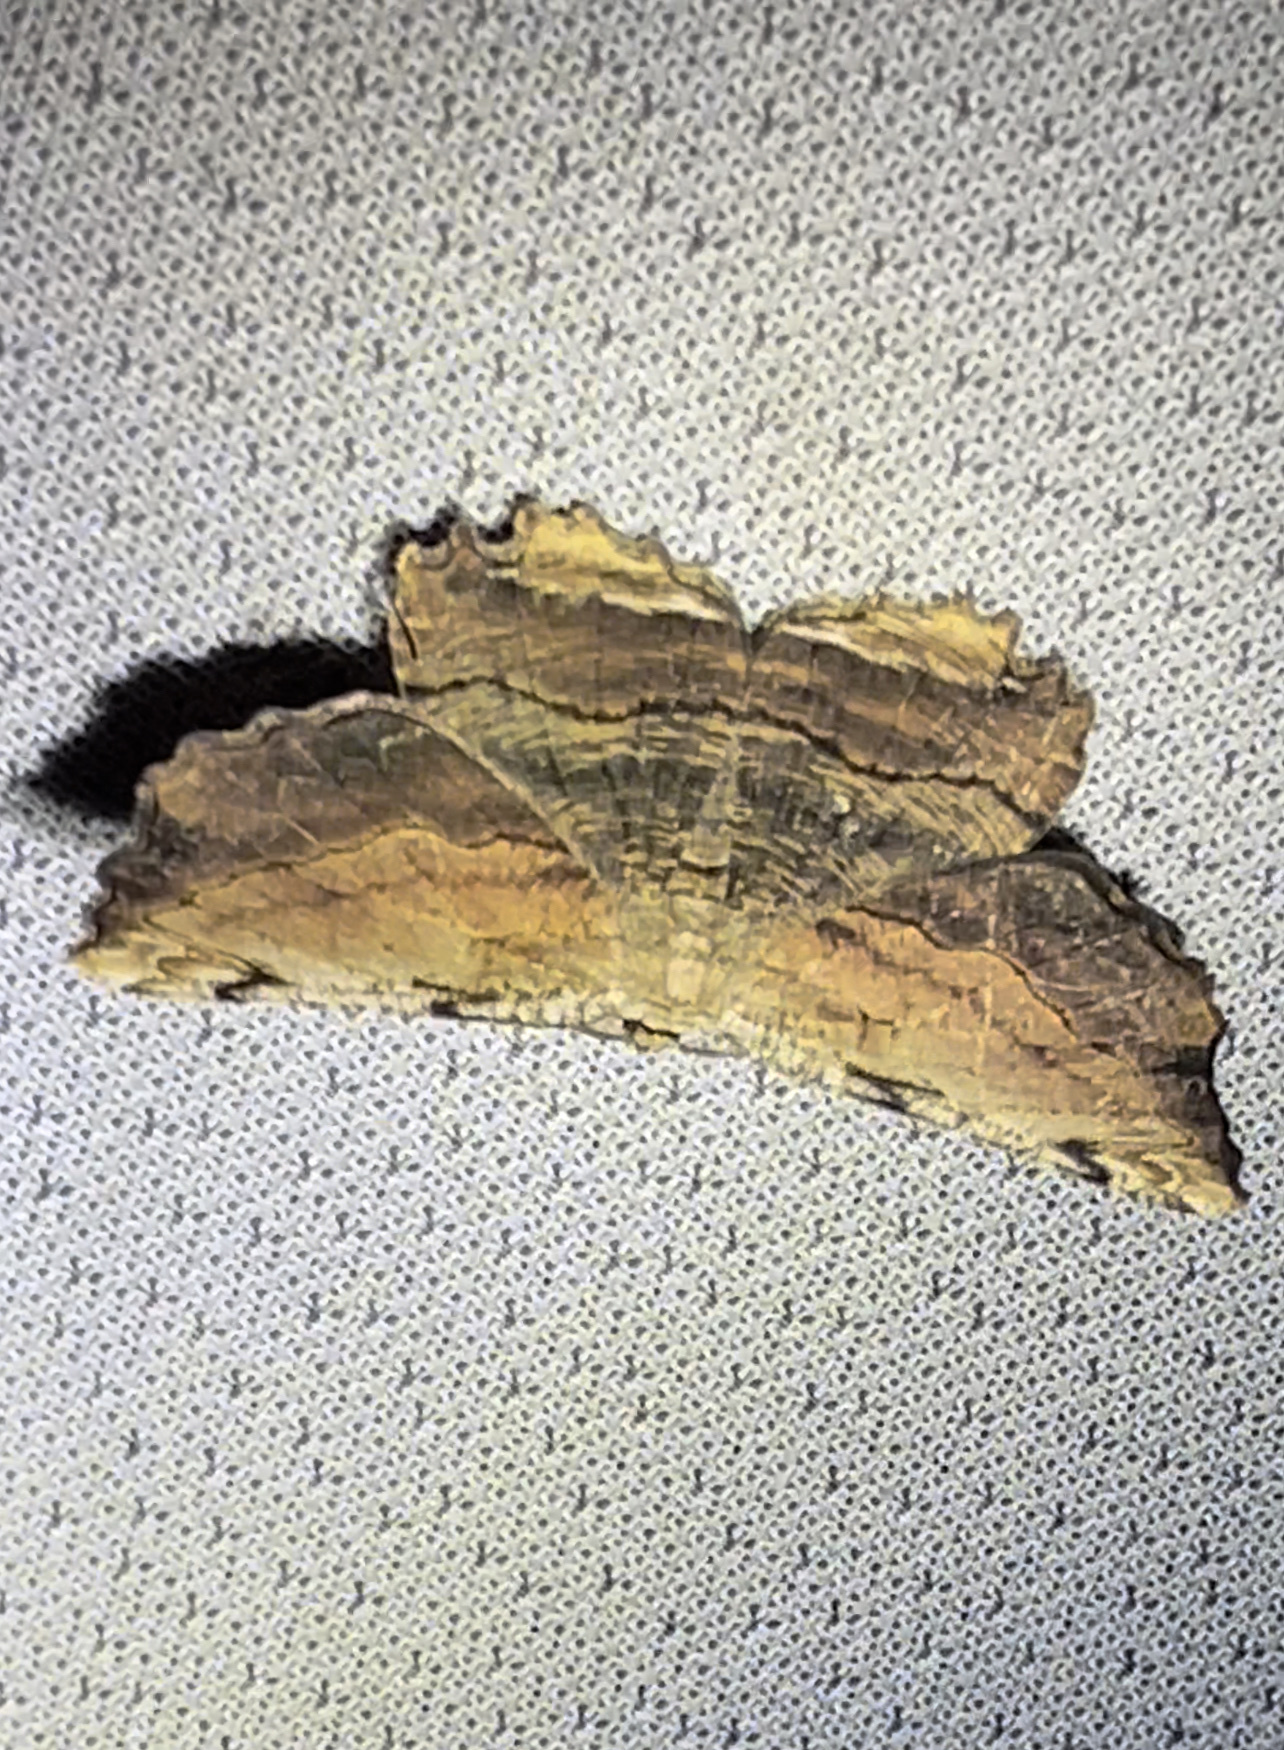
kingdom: Animalia
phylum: Arthropoda
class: Insecta
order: Lepidoptera
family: Geometridae
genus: Lytrosis
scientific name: Lytrosis unitaria
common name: Common lytrosis
